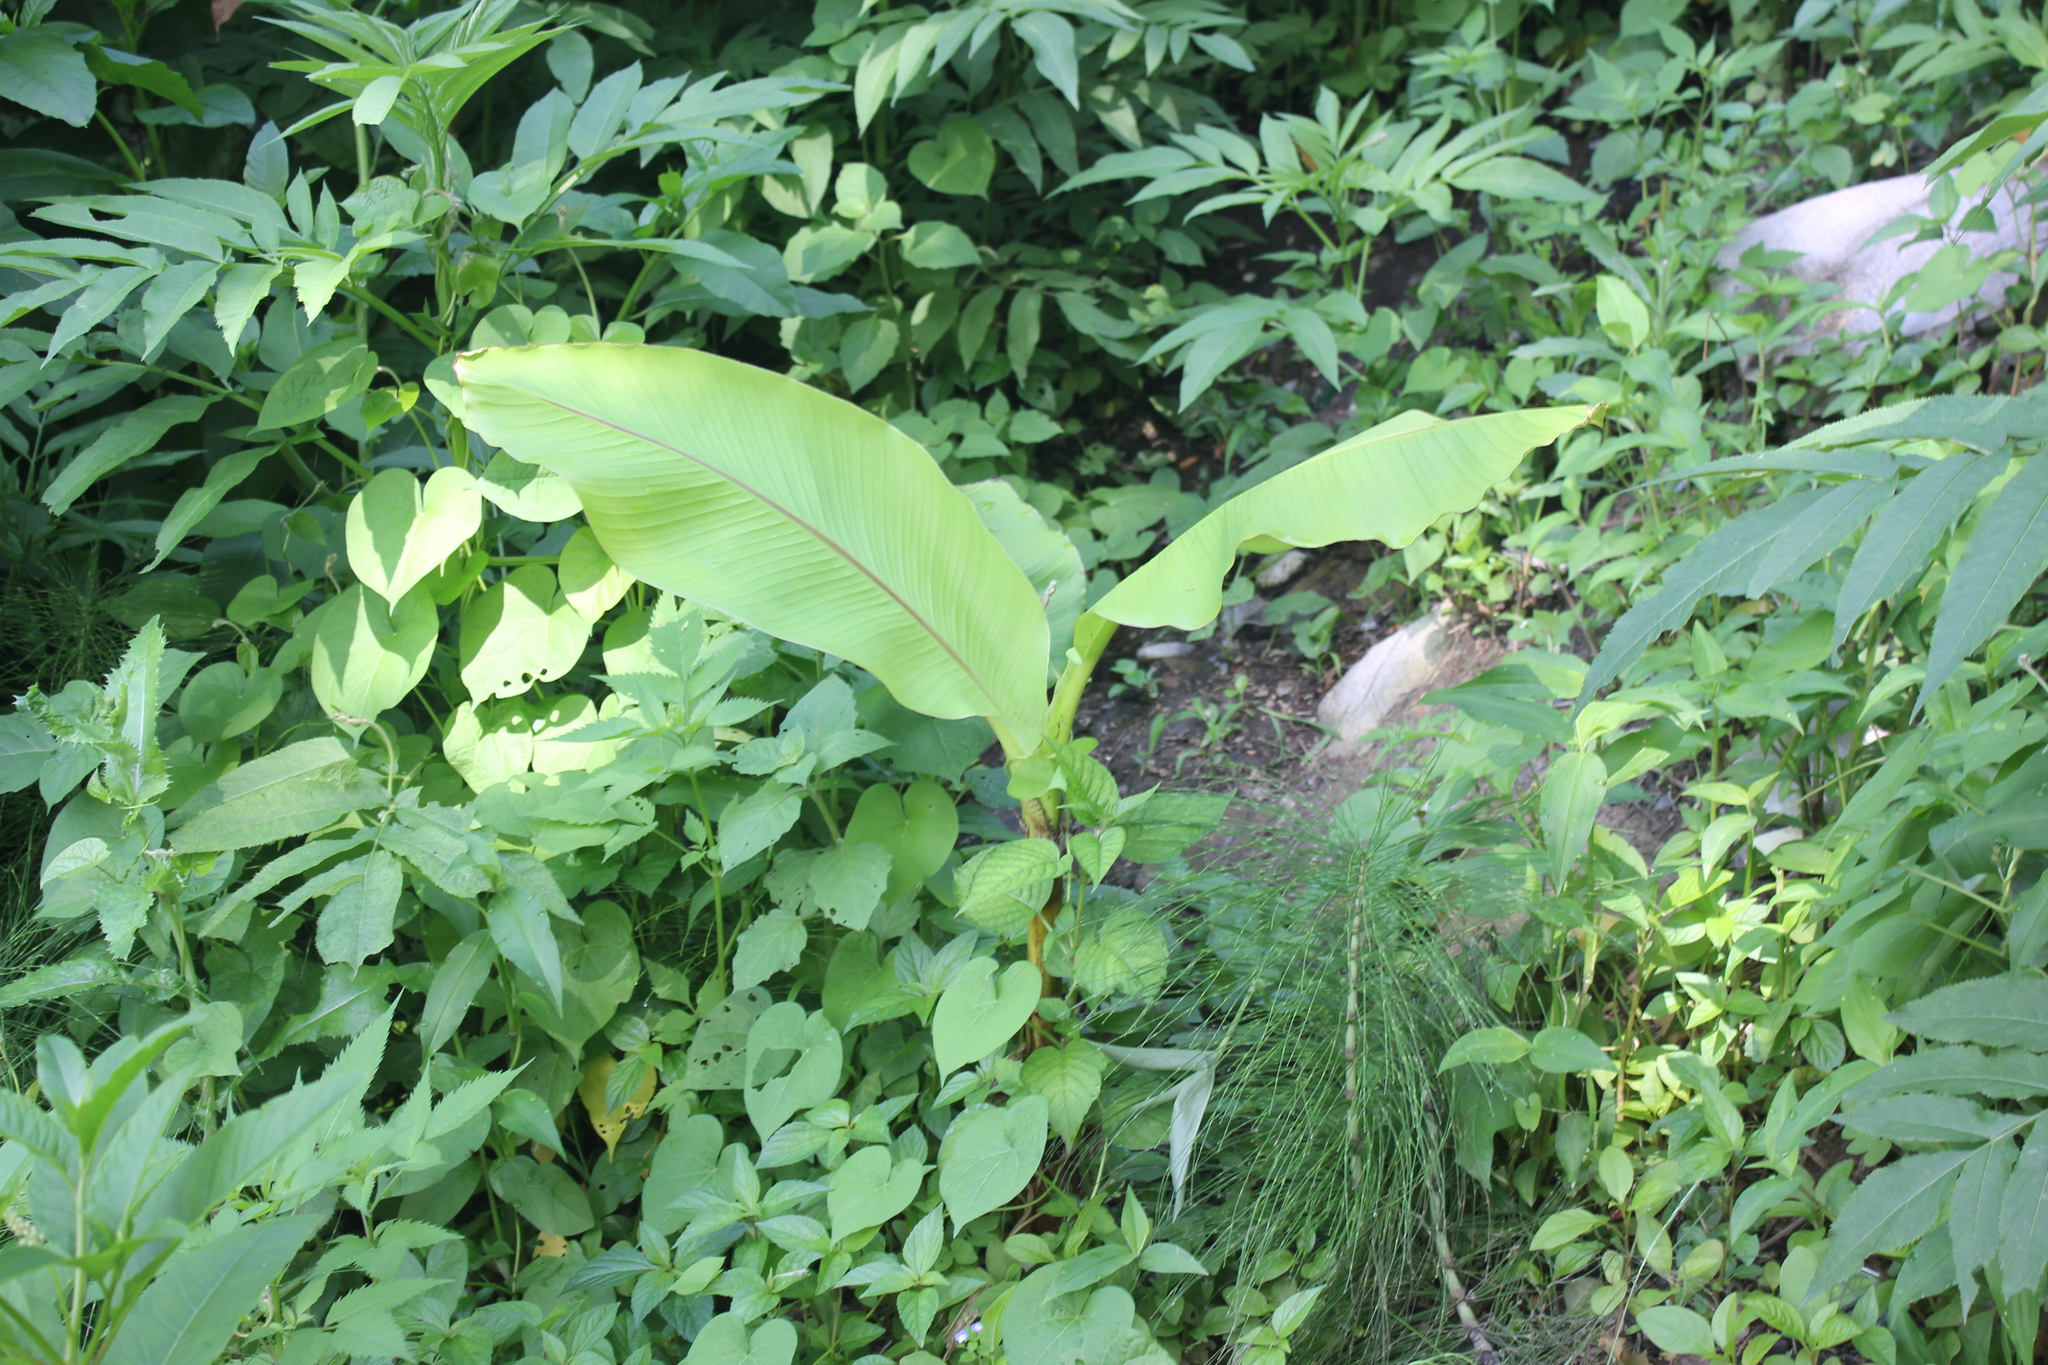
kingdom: Plantae
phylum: Tracheophyta
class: Liliopsida
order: Zingiberales
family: Musaceae
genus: Musa
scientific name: Musa basjoo
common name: Japanese fibre banana
